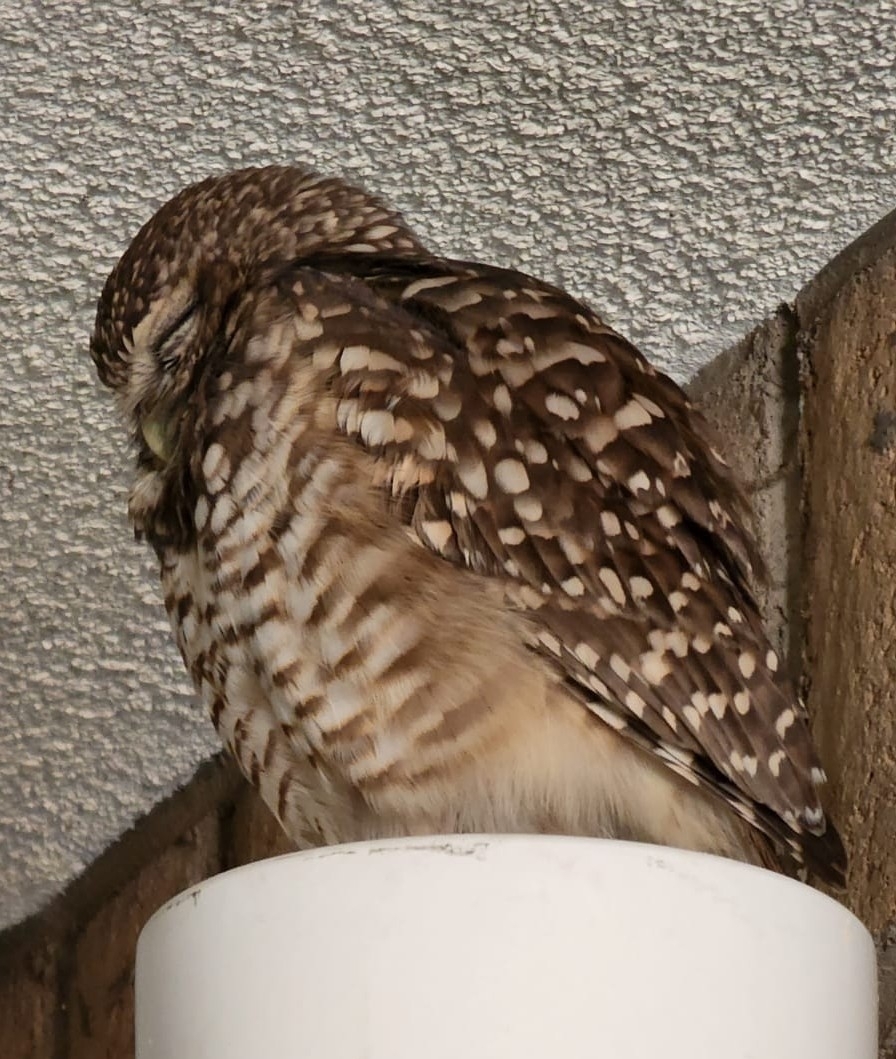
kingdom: Animalia
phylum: Chordata
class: Aves
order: Strigiformes
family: Strigidae
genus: Athene
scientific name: Athene cunicularia
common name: Burrowing owl
